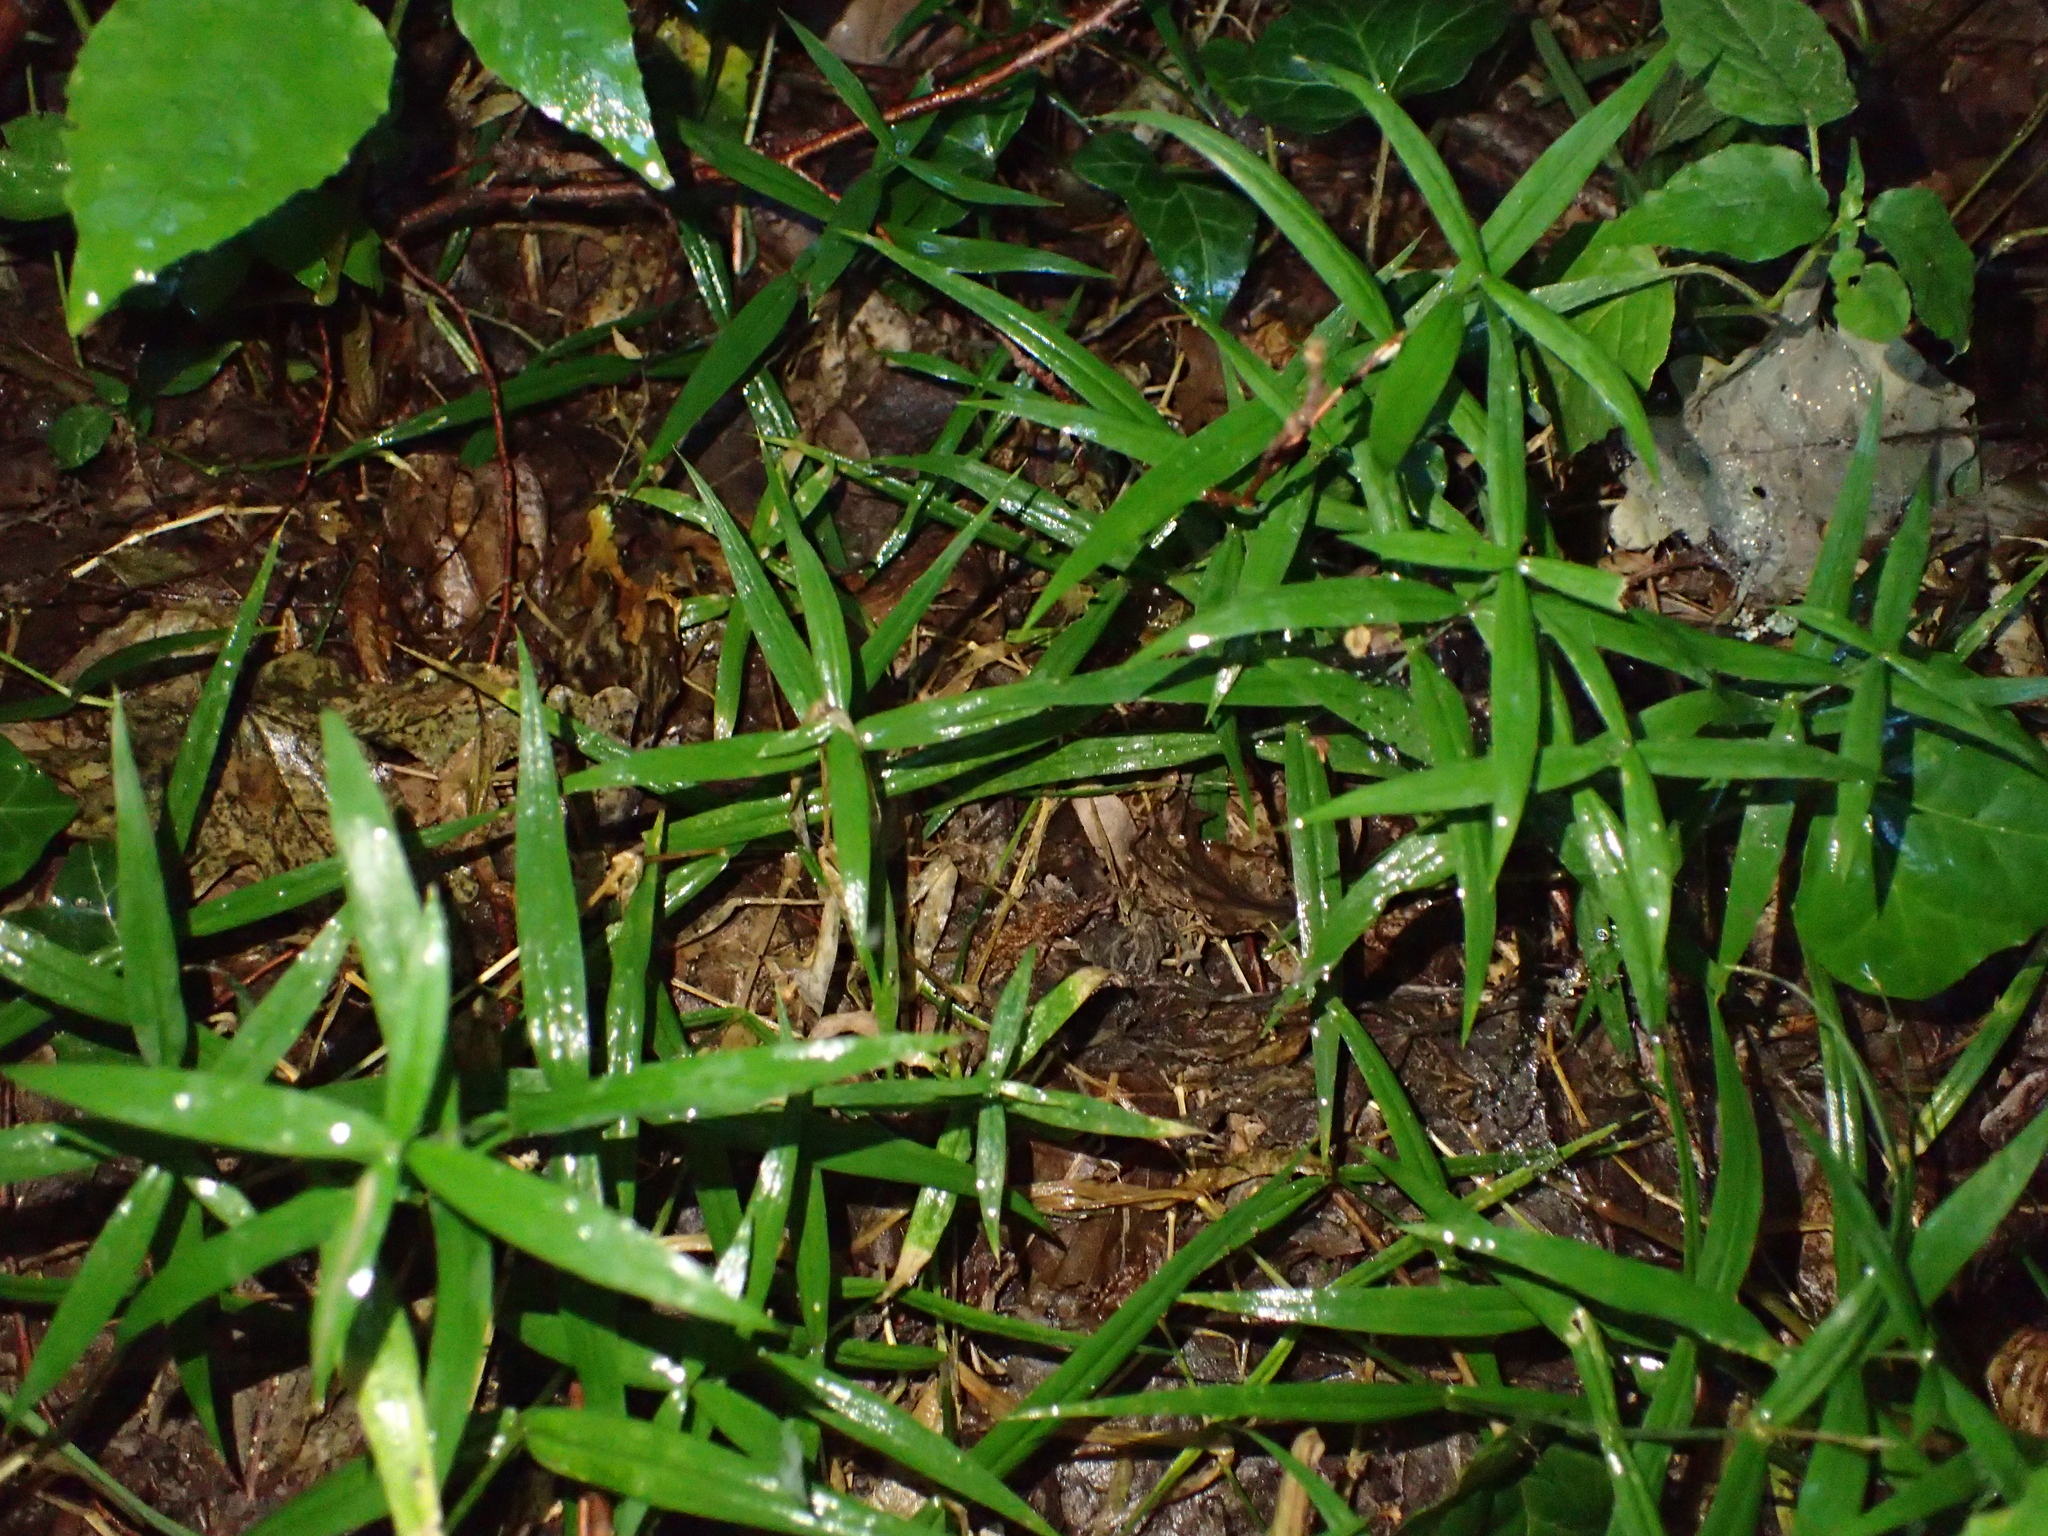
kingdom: Plantae
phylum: Tracheophyta
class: Magnoliopsida
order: Caryophyllales
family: Caryophyllaceae
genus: Rabelera
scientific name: Rabelera holostea
